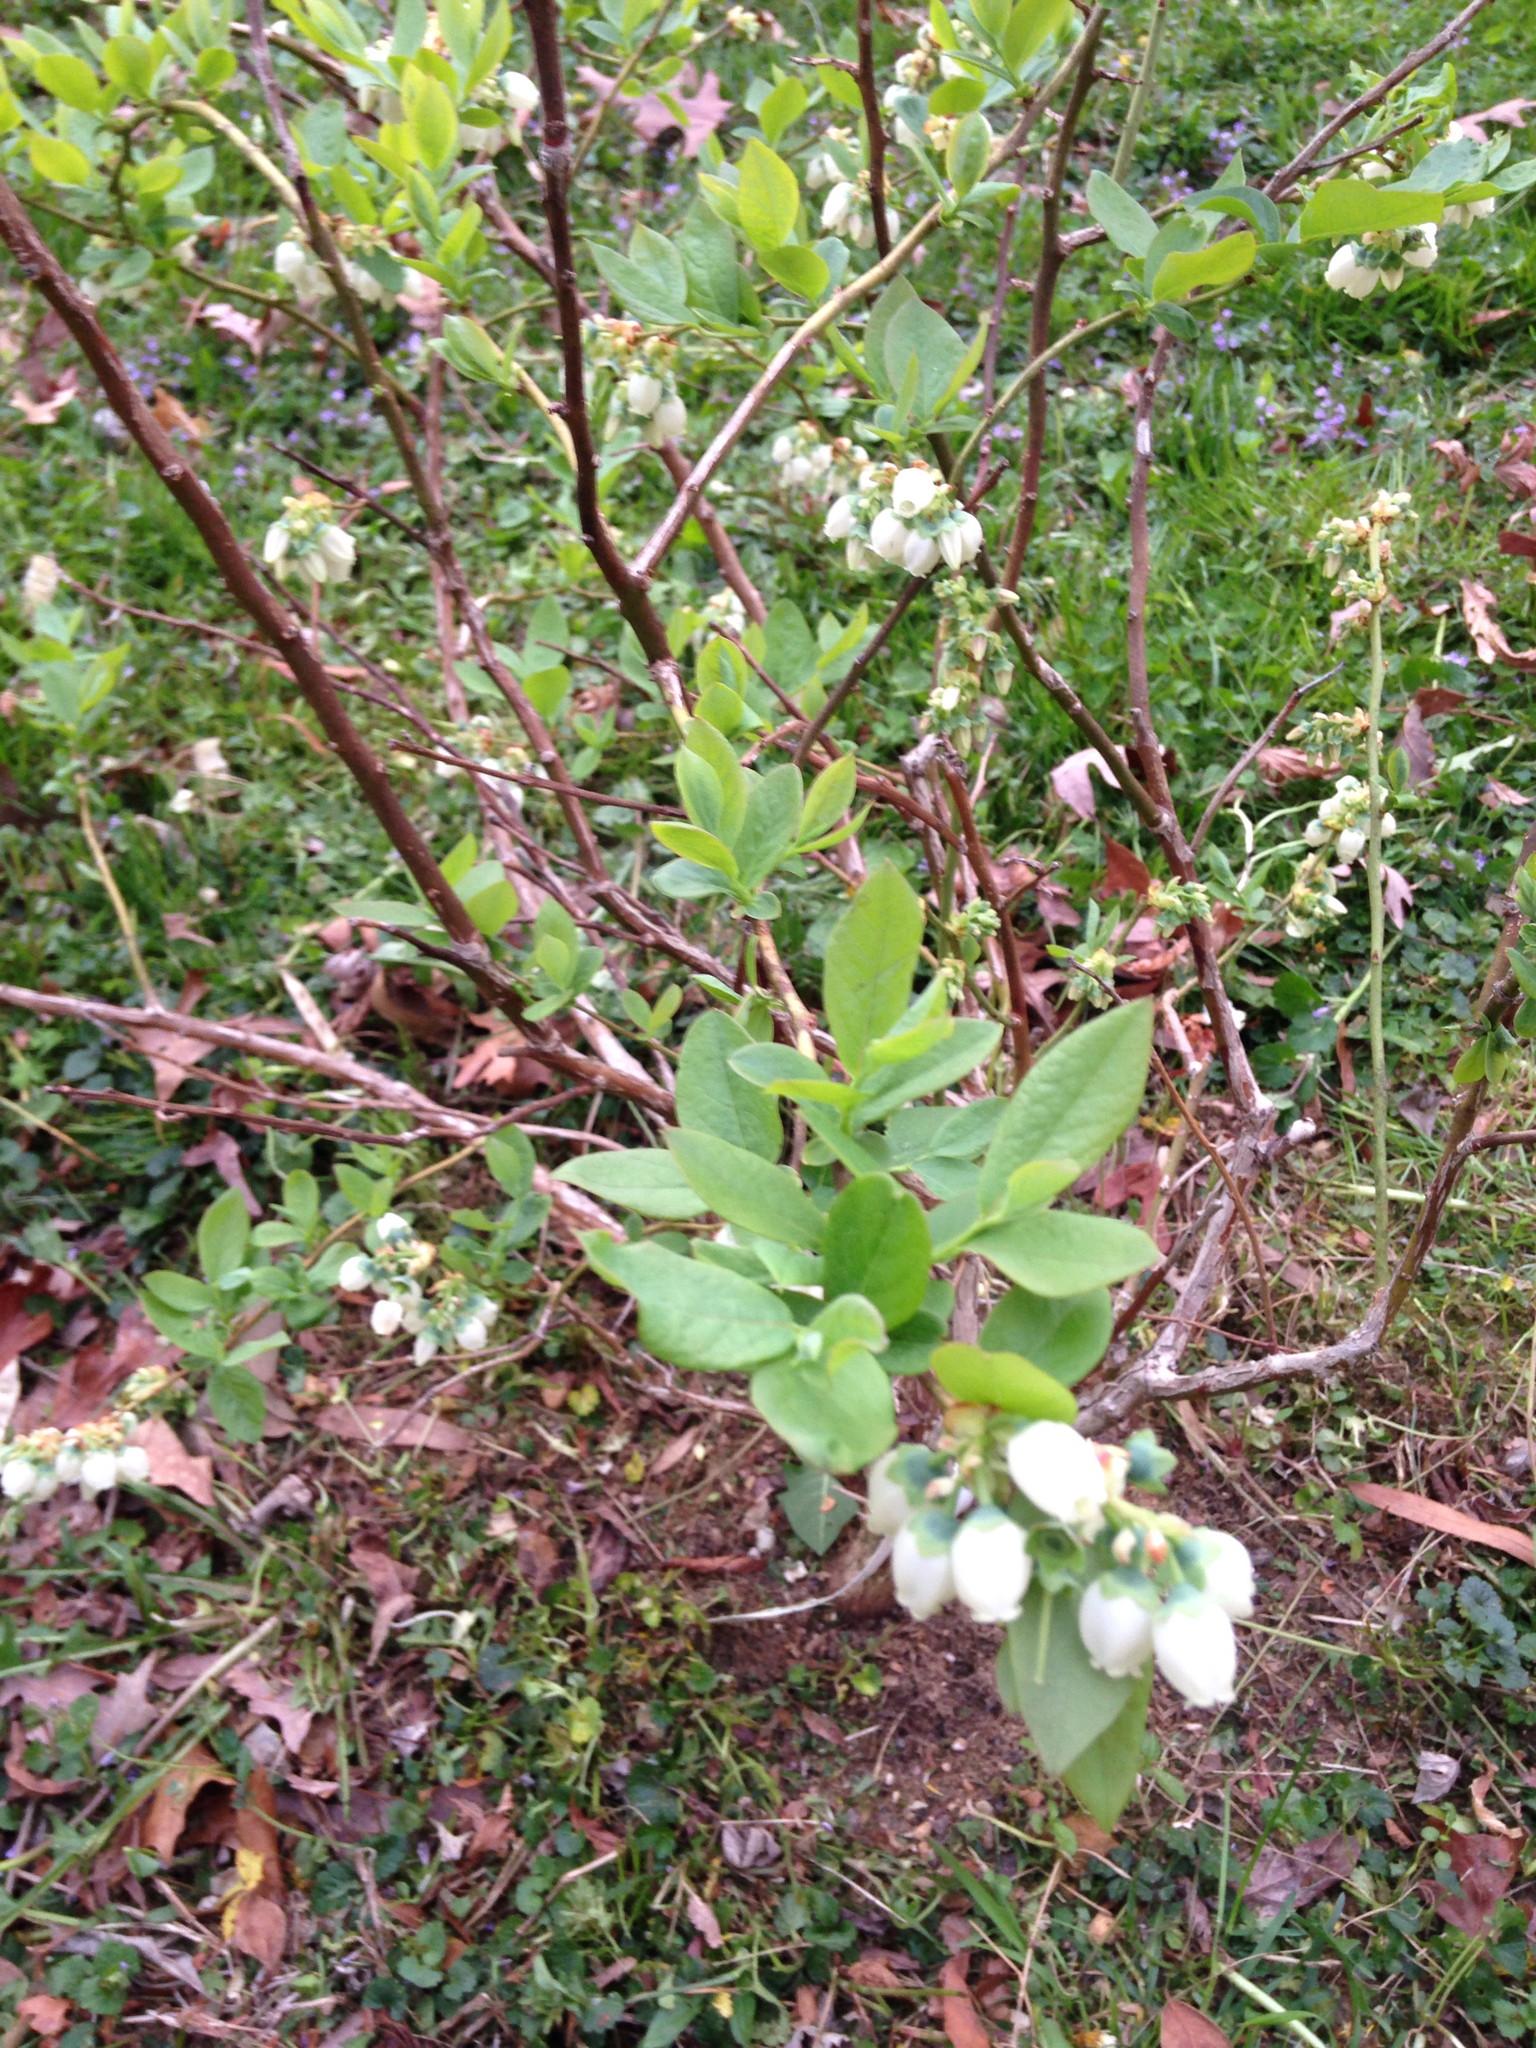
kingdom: Plantae
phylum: Tracheophyta
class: Magnoliopsida
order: Ericales
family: Ericaceae
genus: Vaccinium
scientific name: Vaccinium corymbosum
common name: Blueberry
